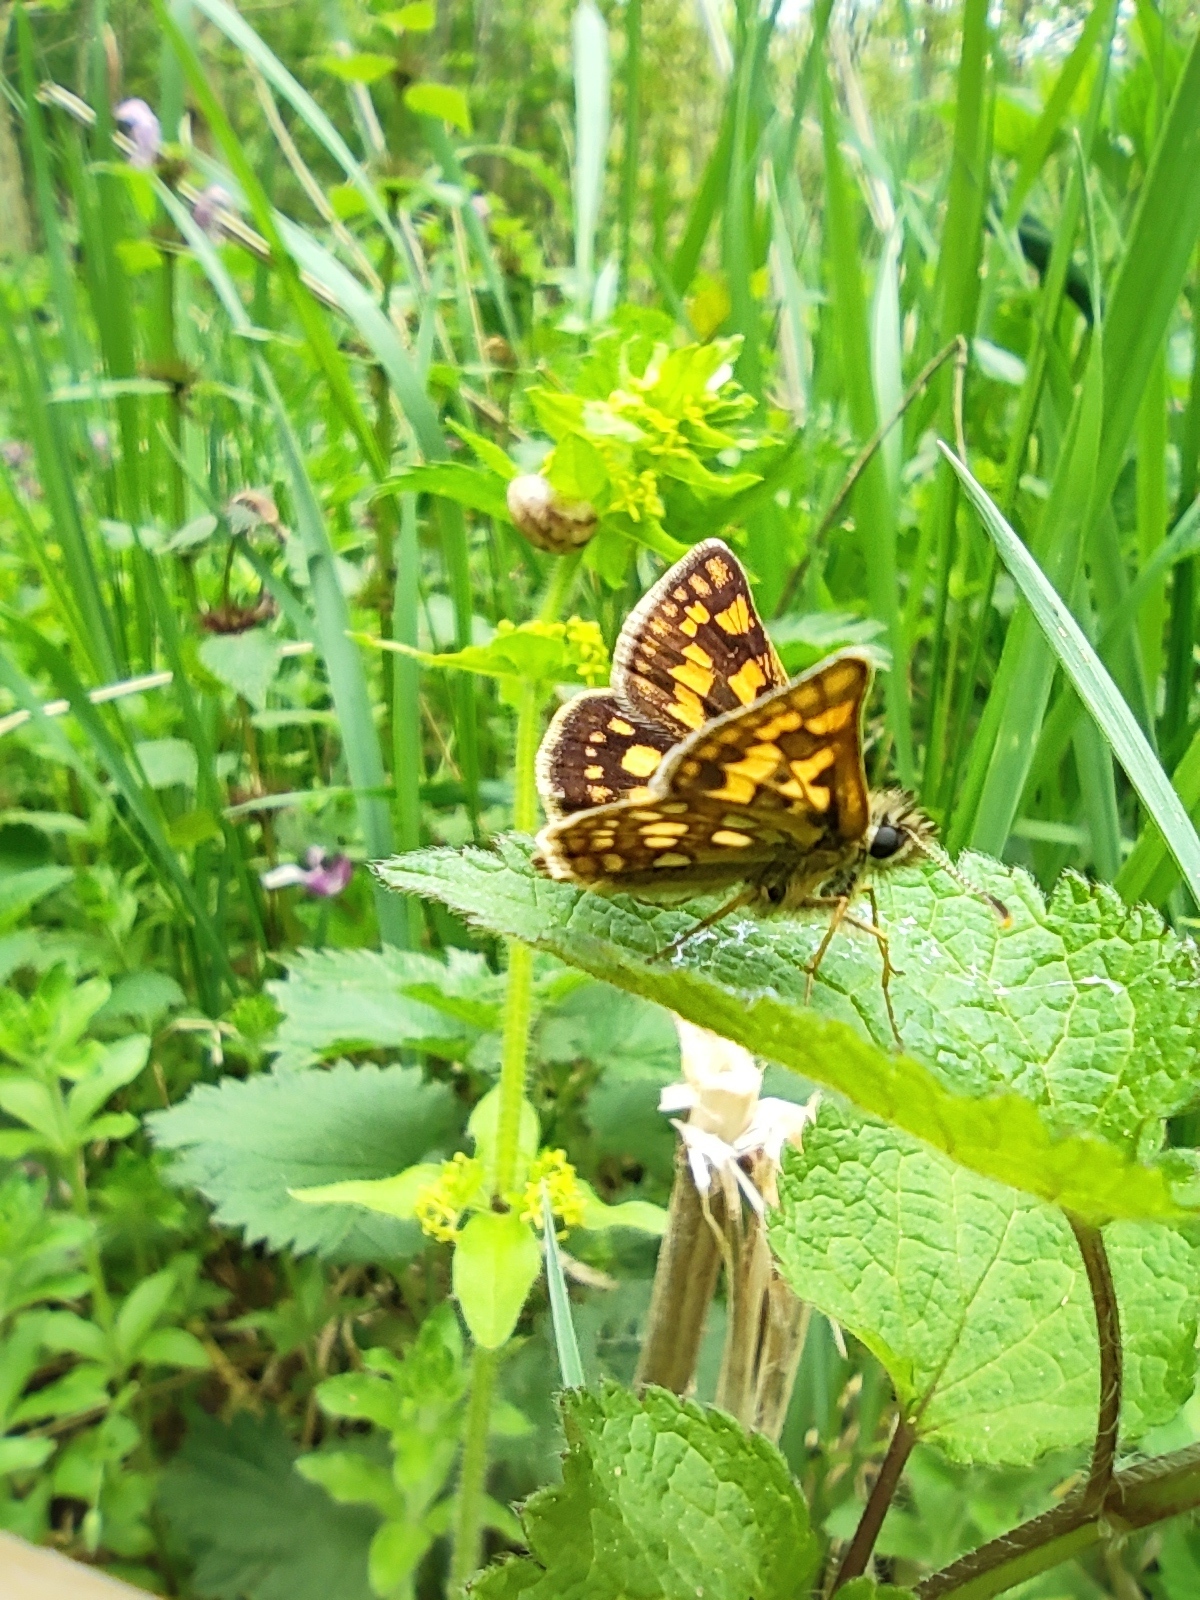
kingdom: Animalia
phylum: Arthropoda
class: Insecta
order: Lepidoptera
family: Hesperiidae
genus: Carterocephalus
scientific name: Carterocephalus palaemon
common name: Chequered skipper
